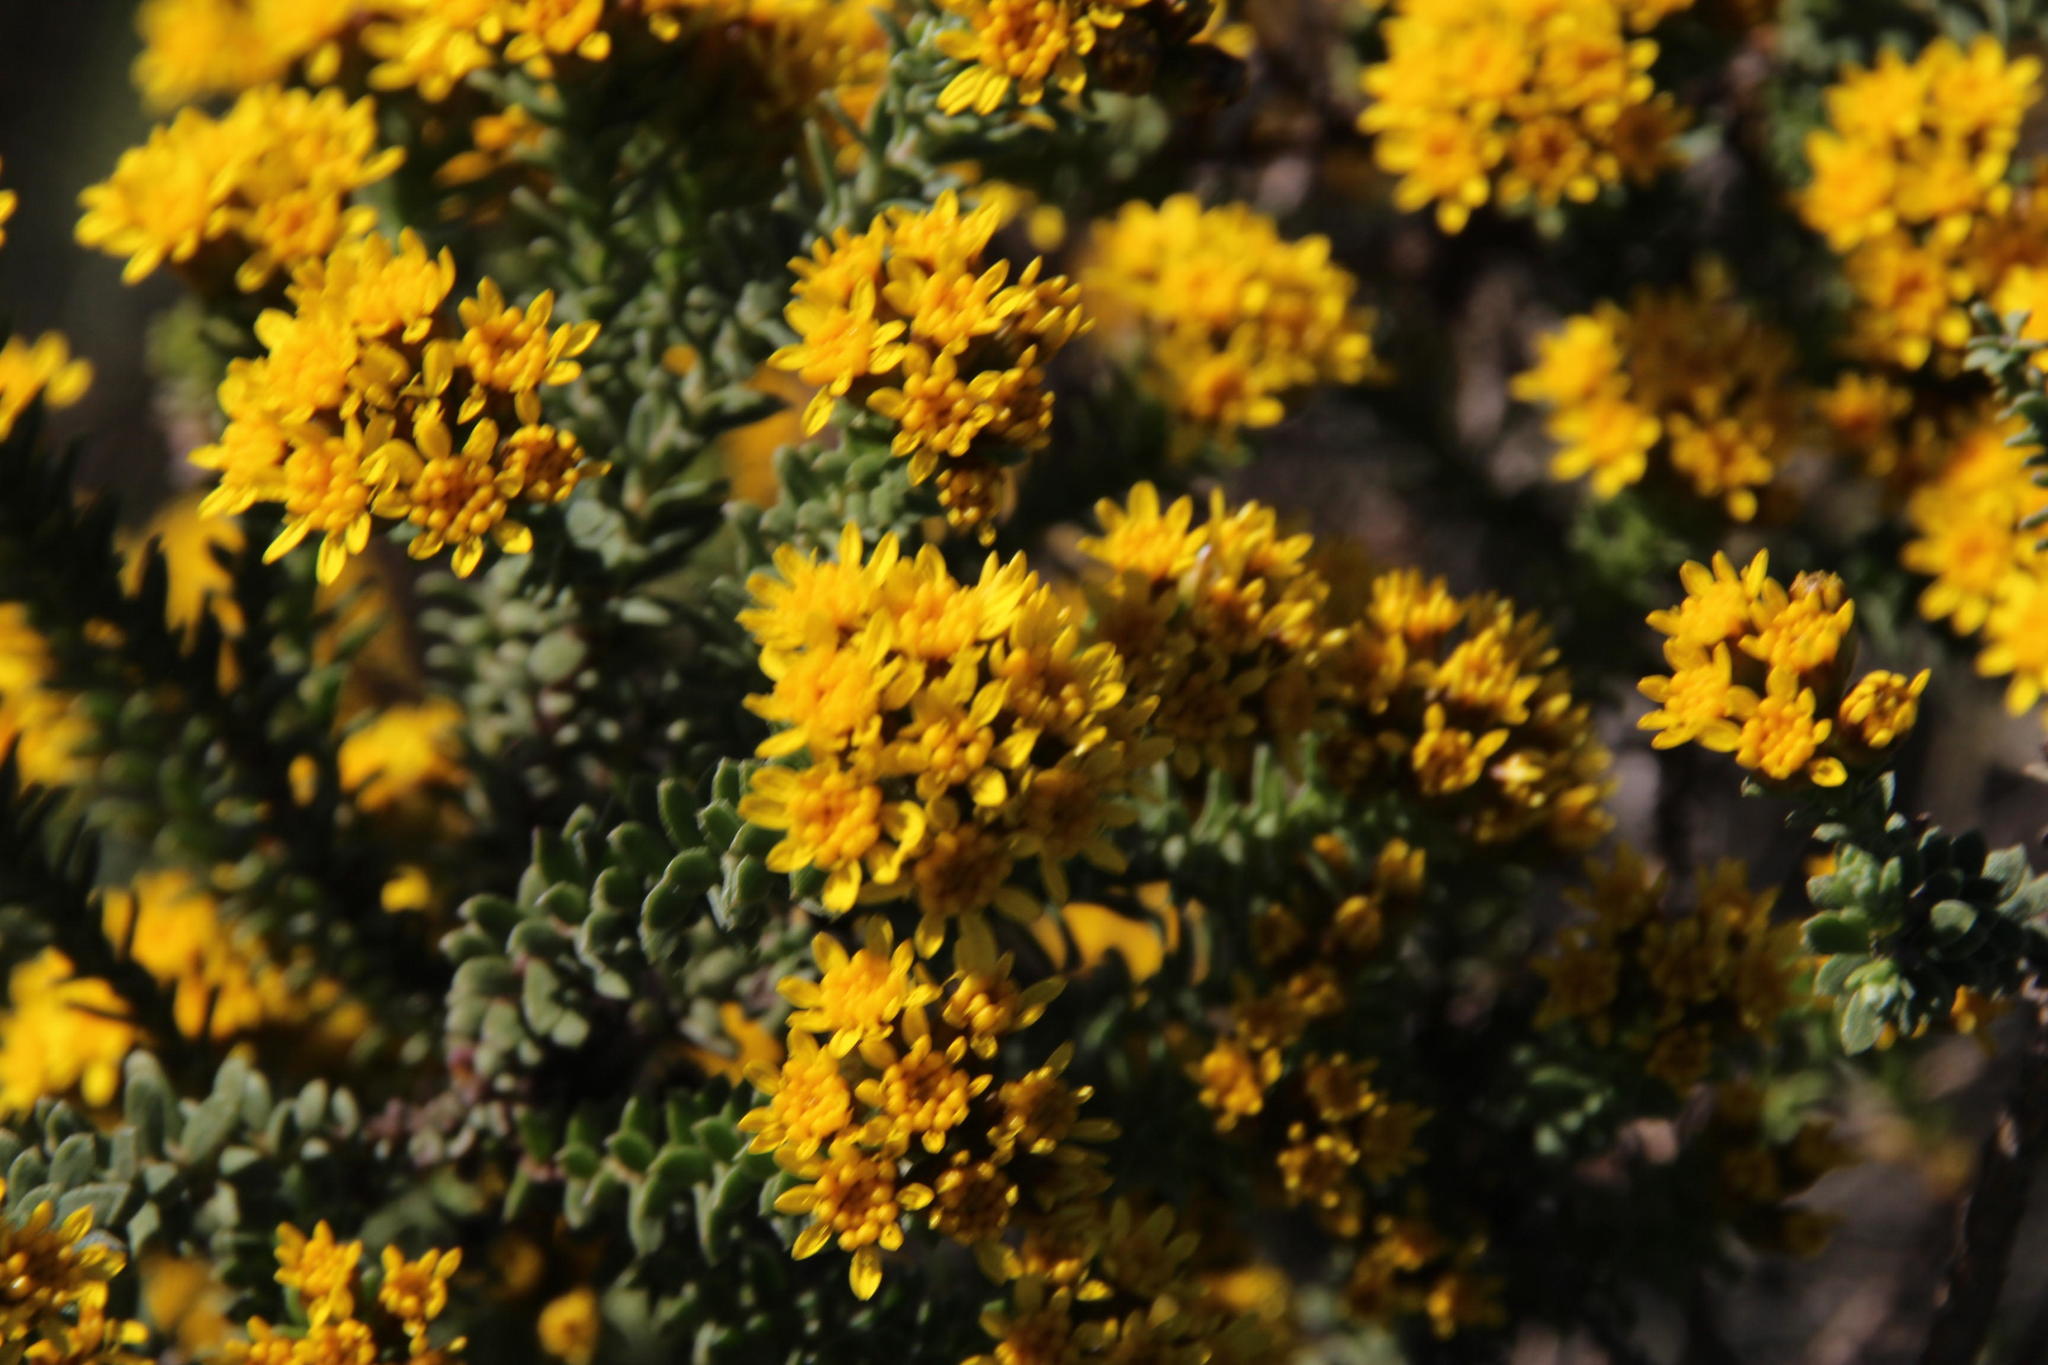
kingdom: Plantae
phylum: Tracheophyta
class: Magnoliopsida
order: Asterales
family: Asteraceae
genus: Oedera
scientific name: Oedera genistifolia
